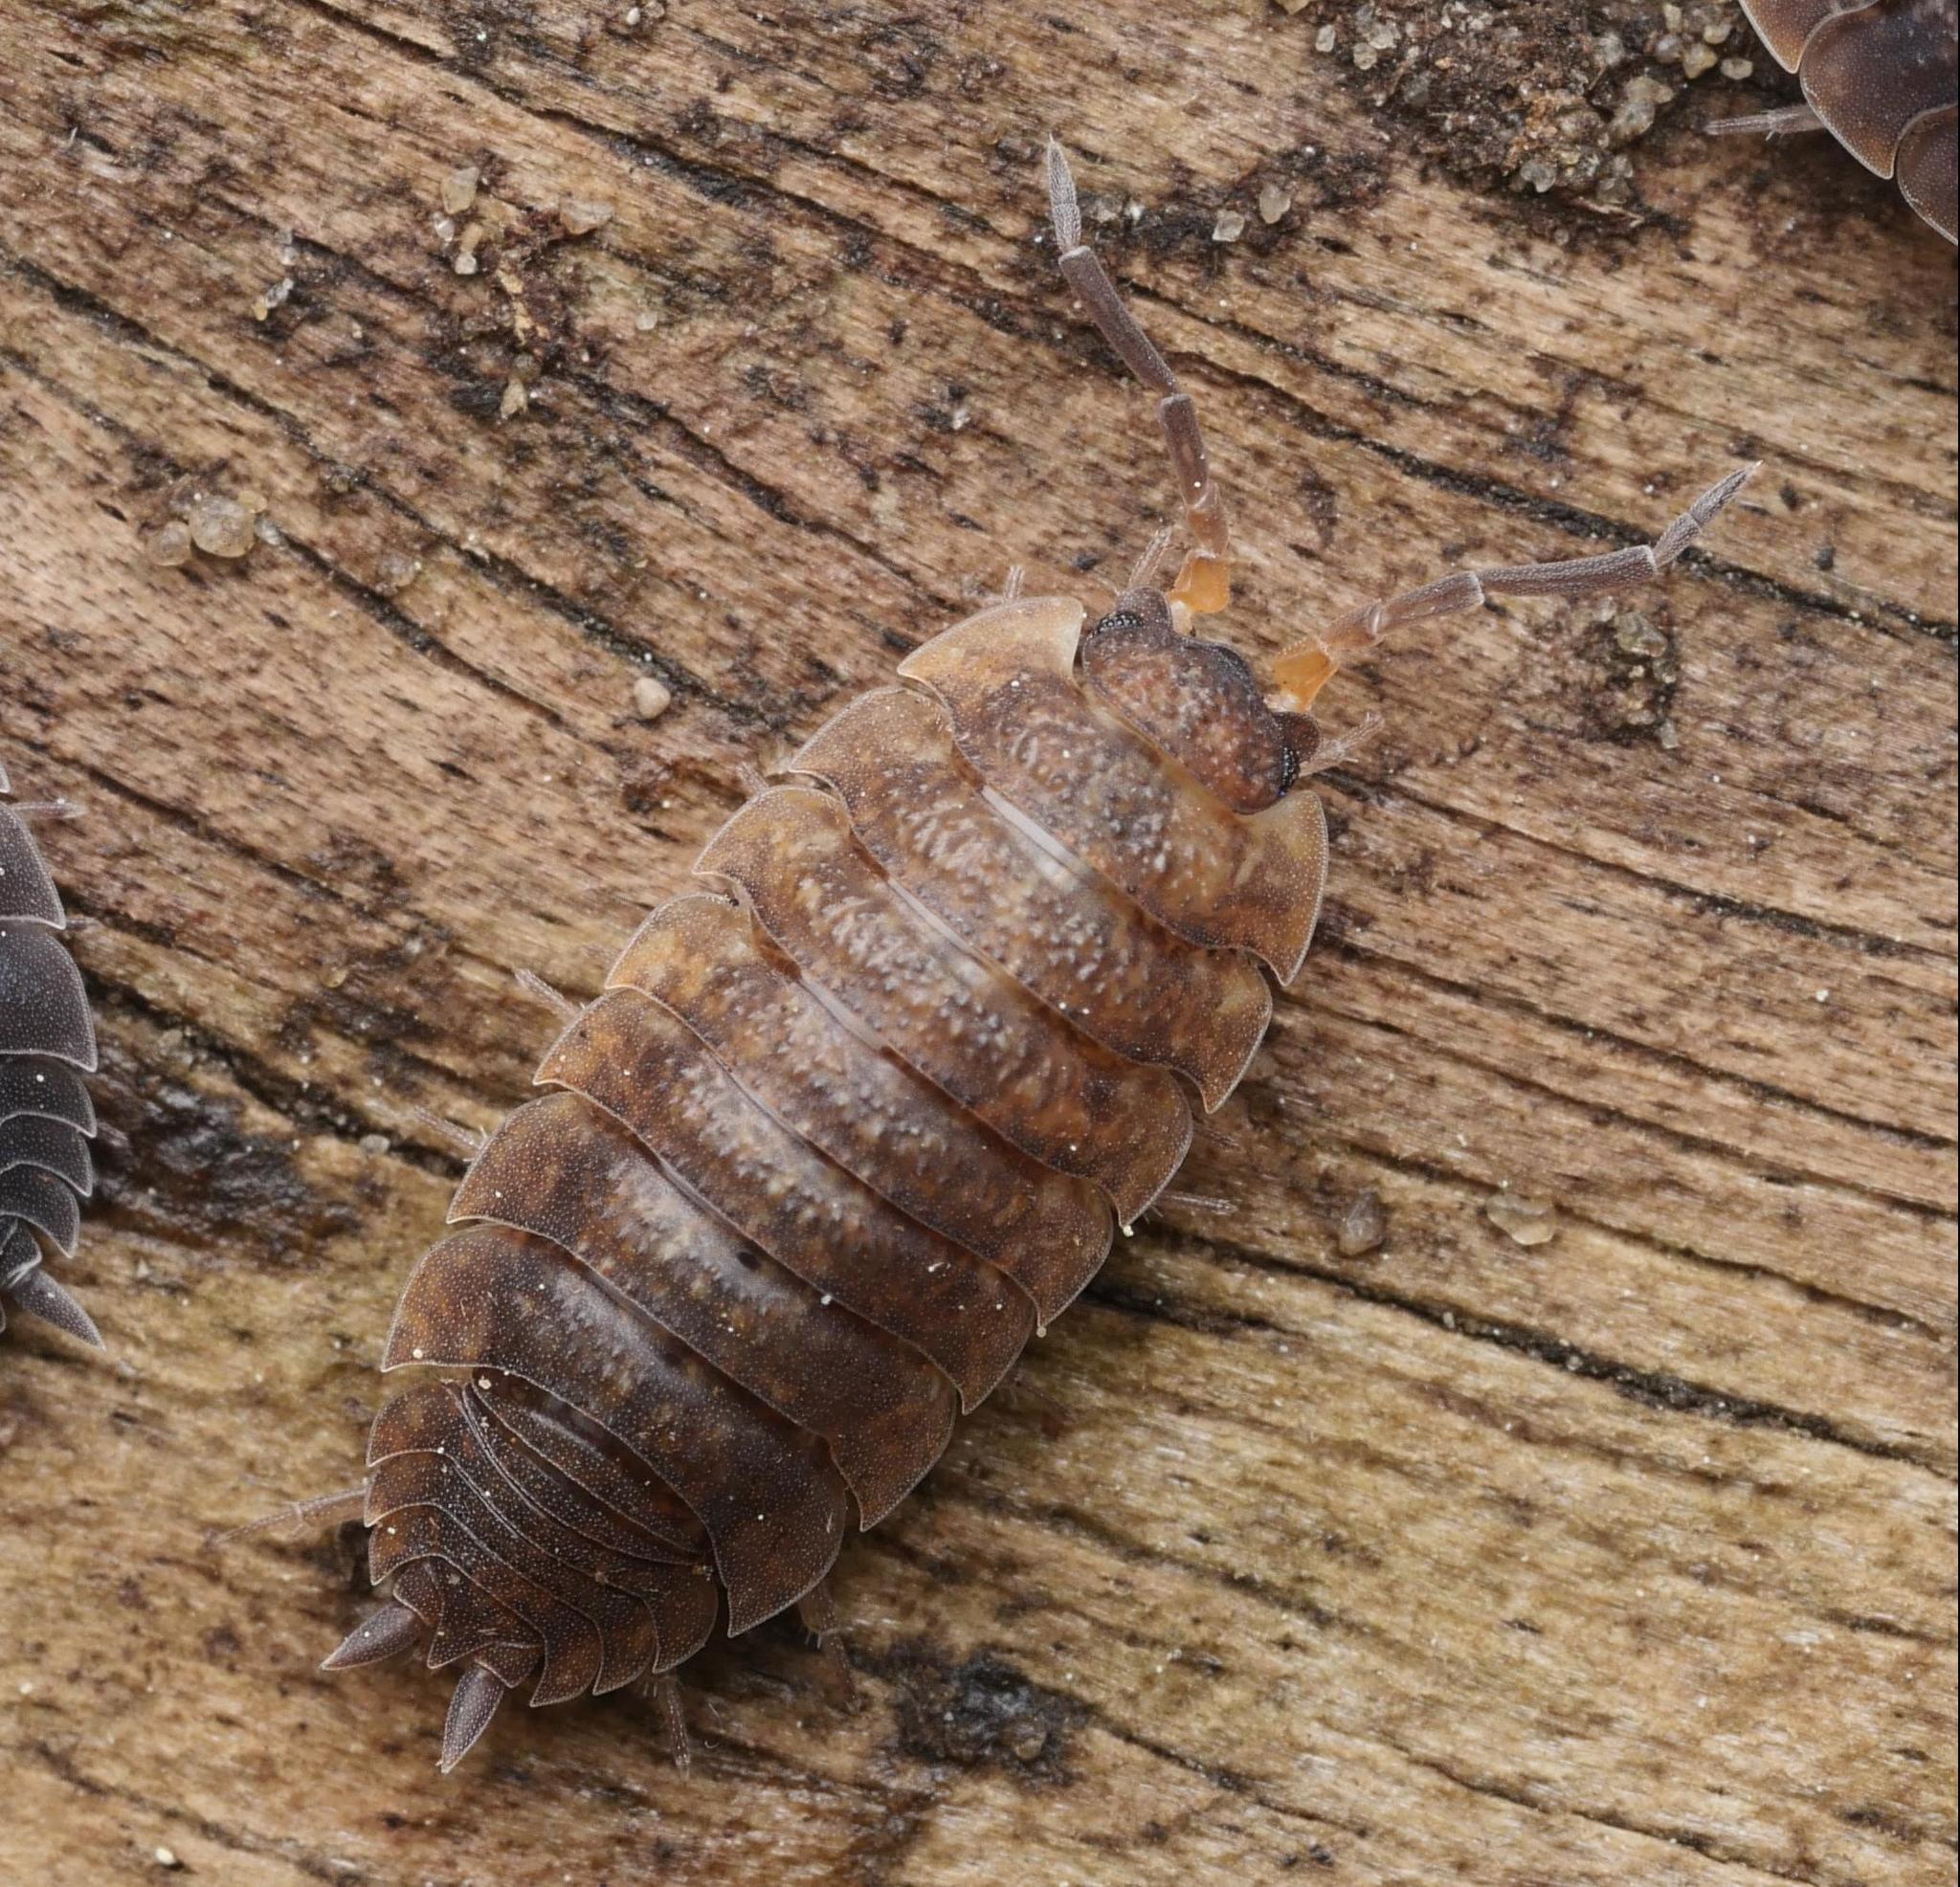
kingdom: Animalia
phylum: Arthropoda
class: Malacostraca
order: Isopoda
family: Porcellionidae
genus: Porcellio
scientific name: Porcellio scaber
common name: Common rough woodlouse
